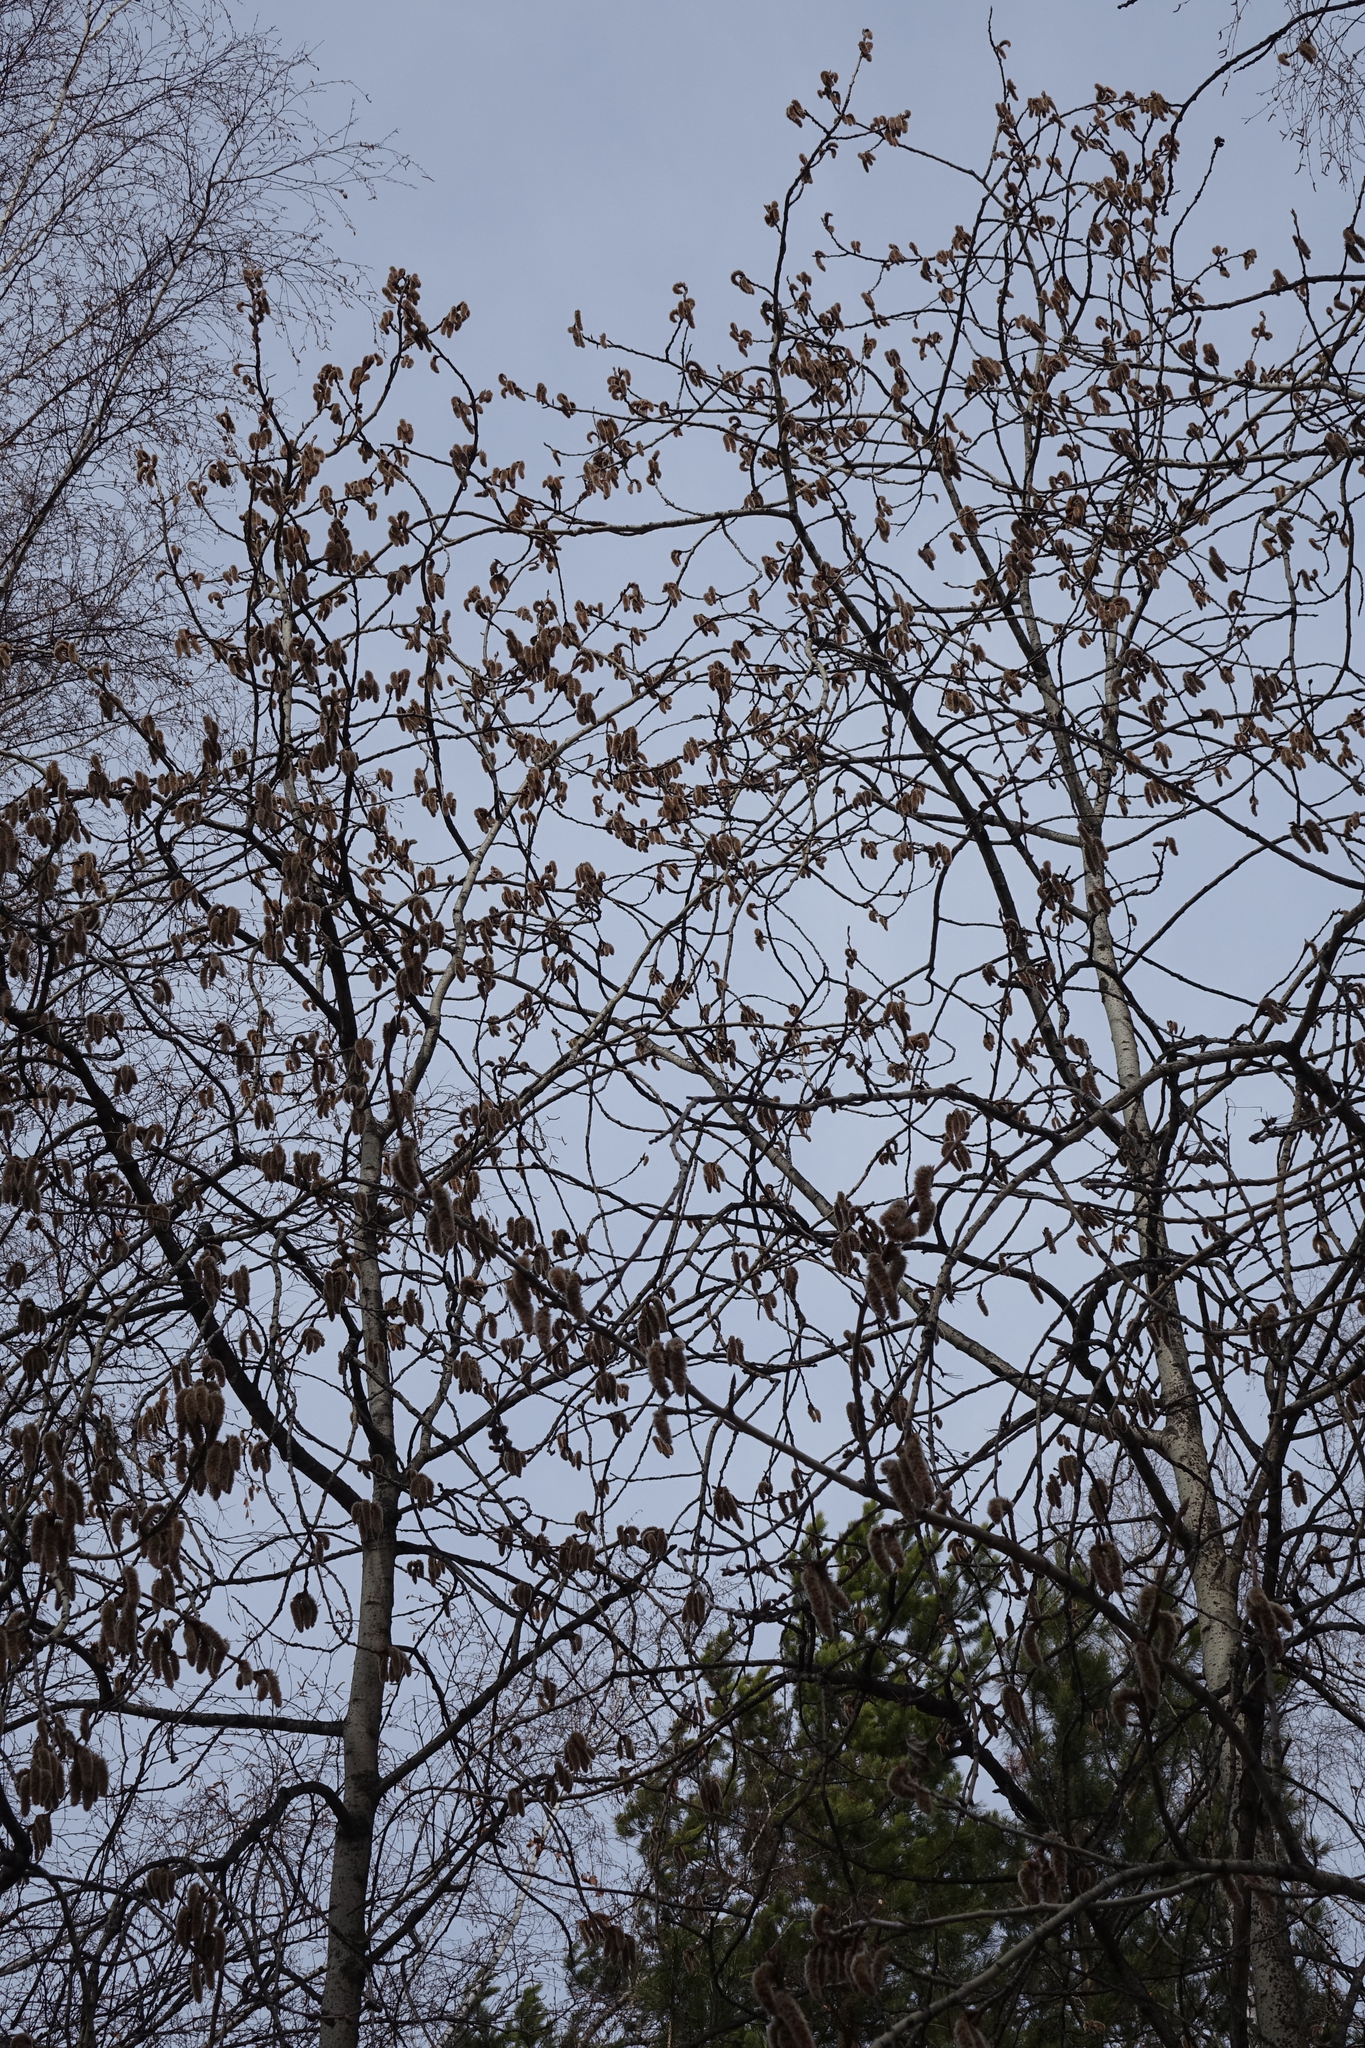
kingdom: Plantae
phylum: Tracheophyta
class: Magnoliopsida
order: Malpighiales
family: Salicaceae
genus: Populus
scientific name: Populus tremula
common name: European aspen
